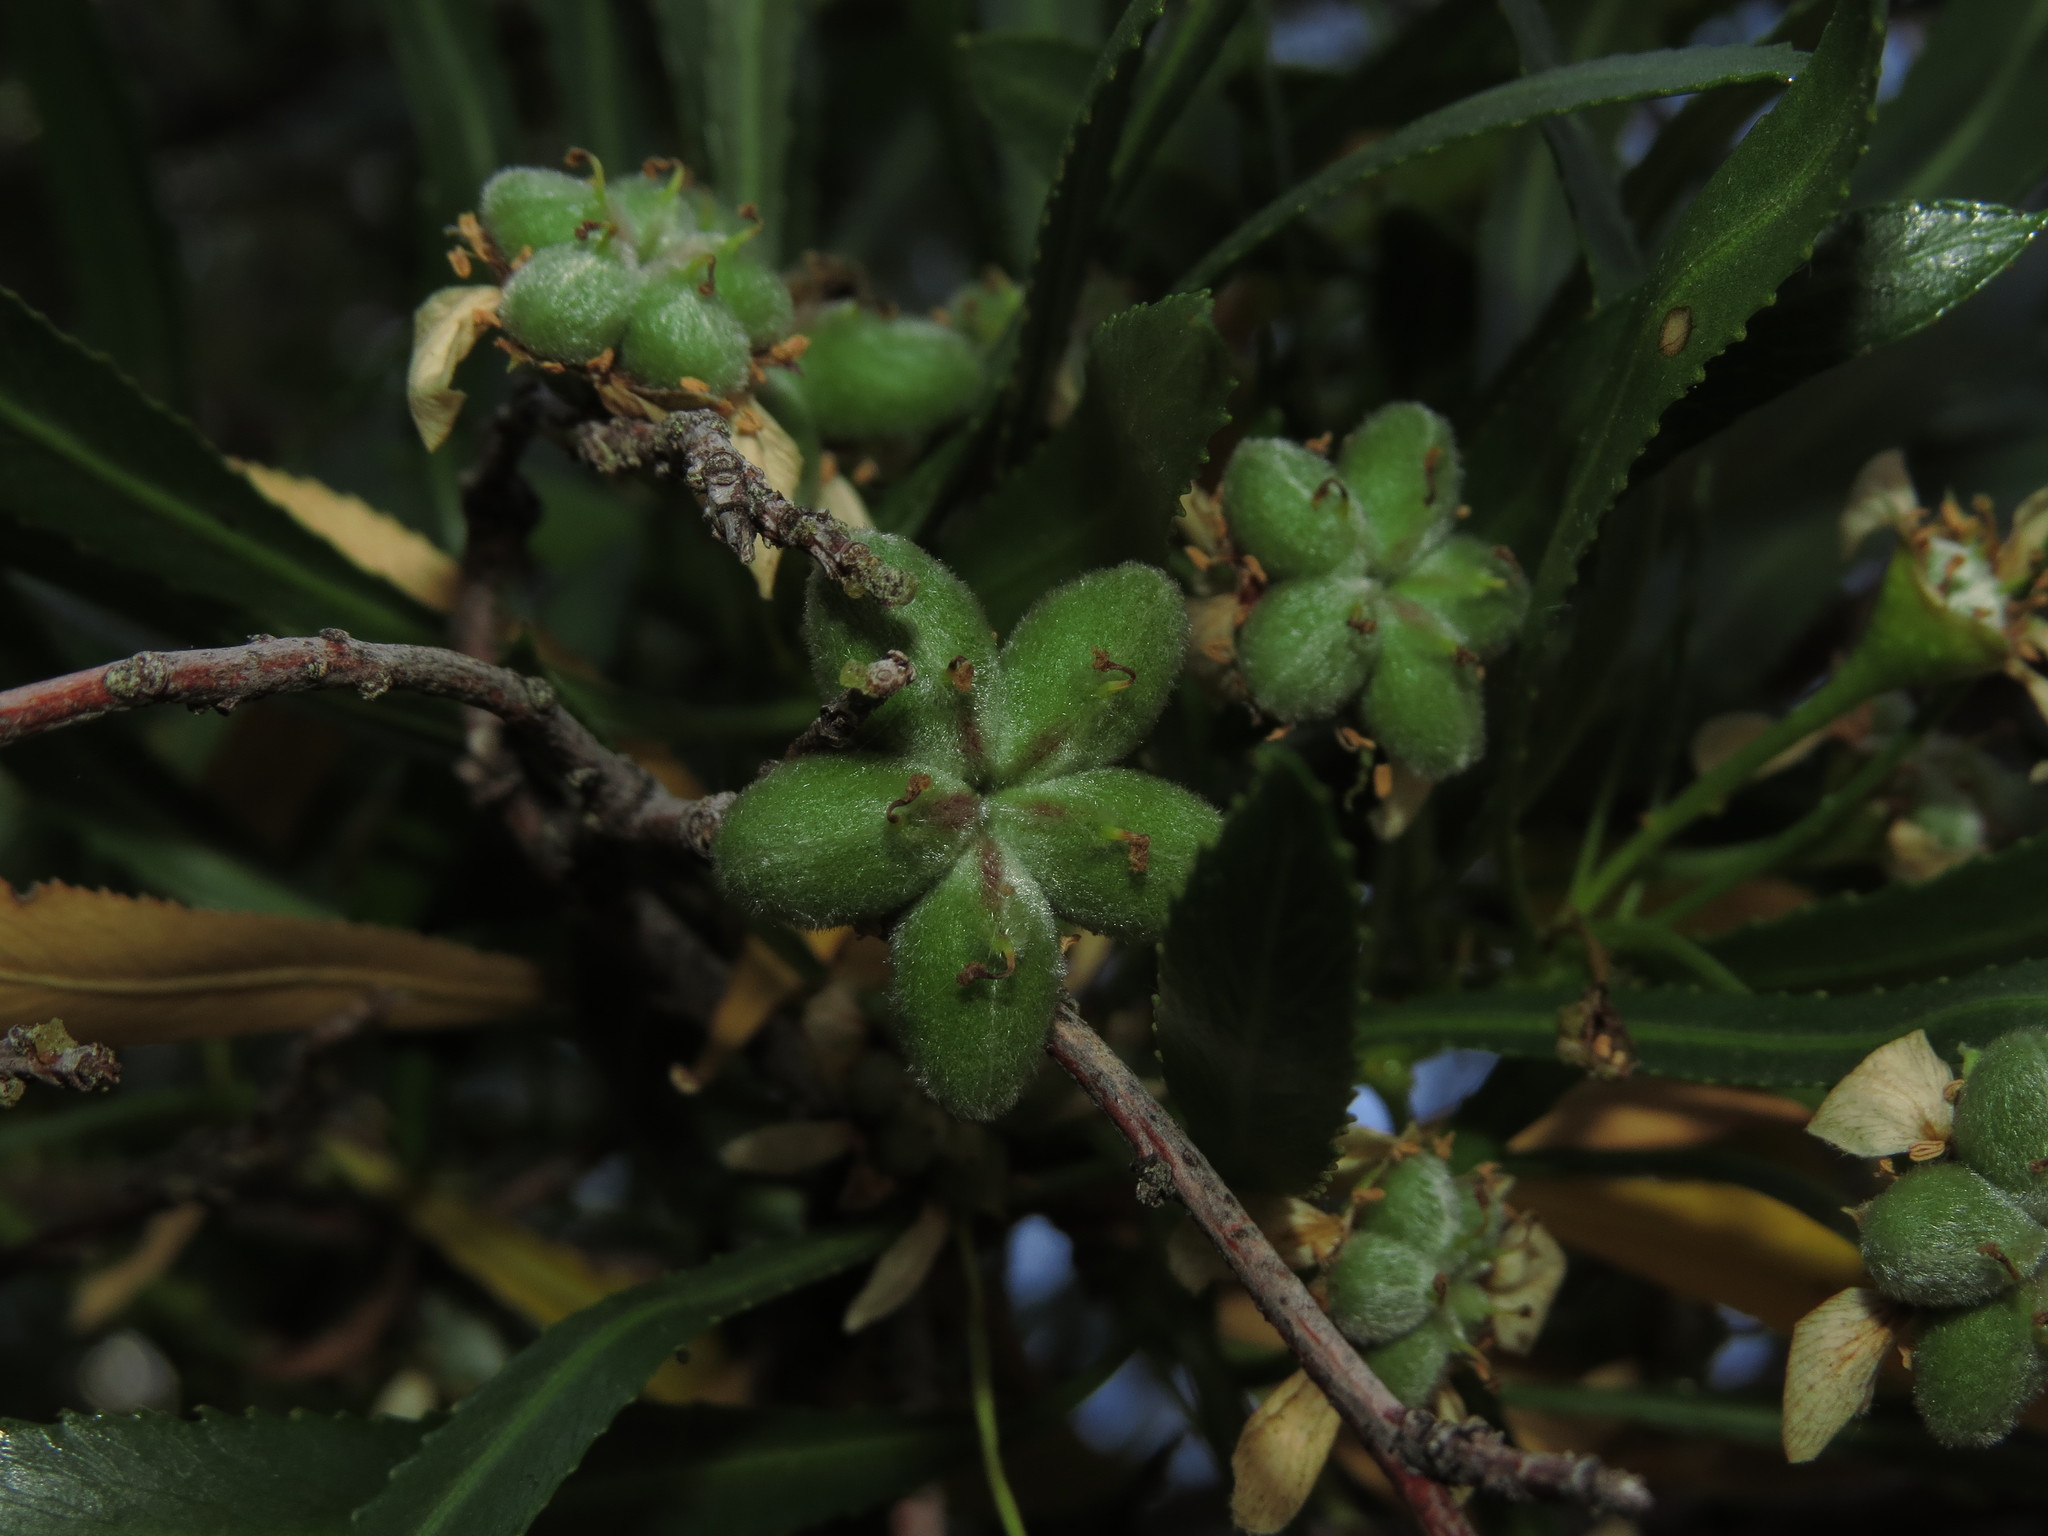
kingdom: Plantae
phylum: Tracheophyta
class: Magnoliopsida
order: Rosales
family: Rosaceae
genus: Kageneckia
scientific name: Kageneckia angustifolia
